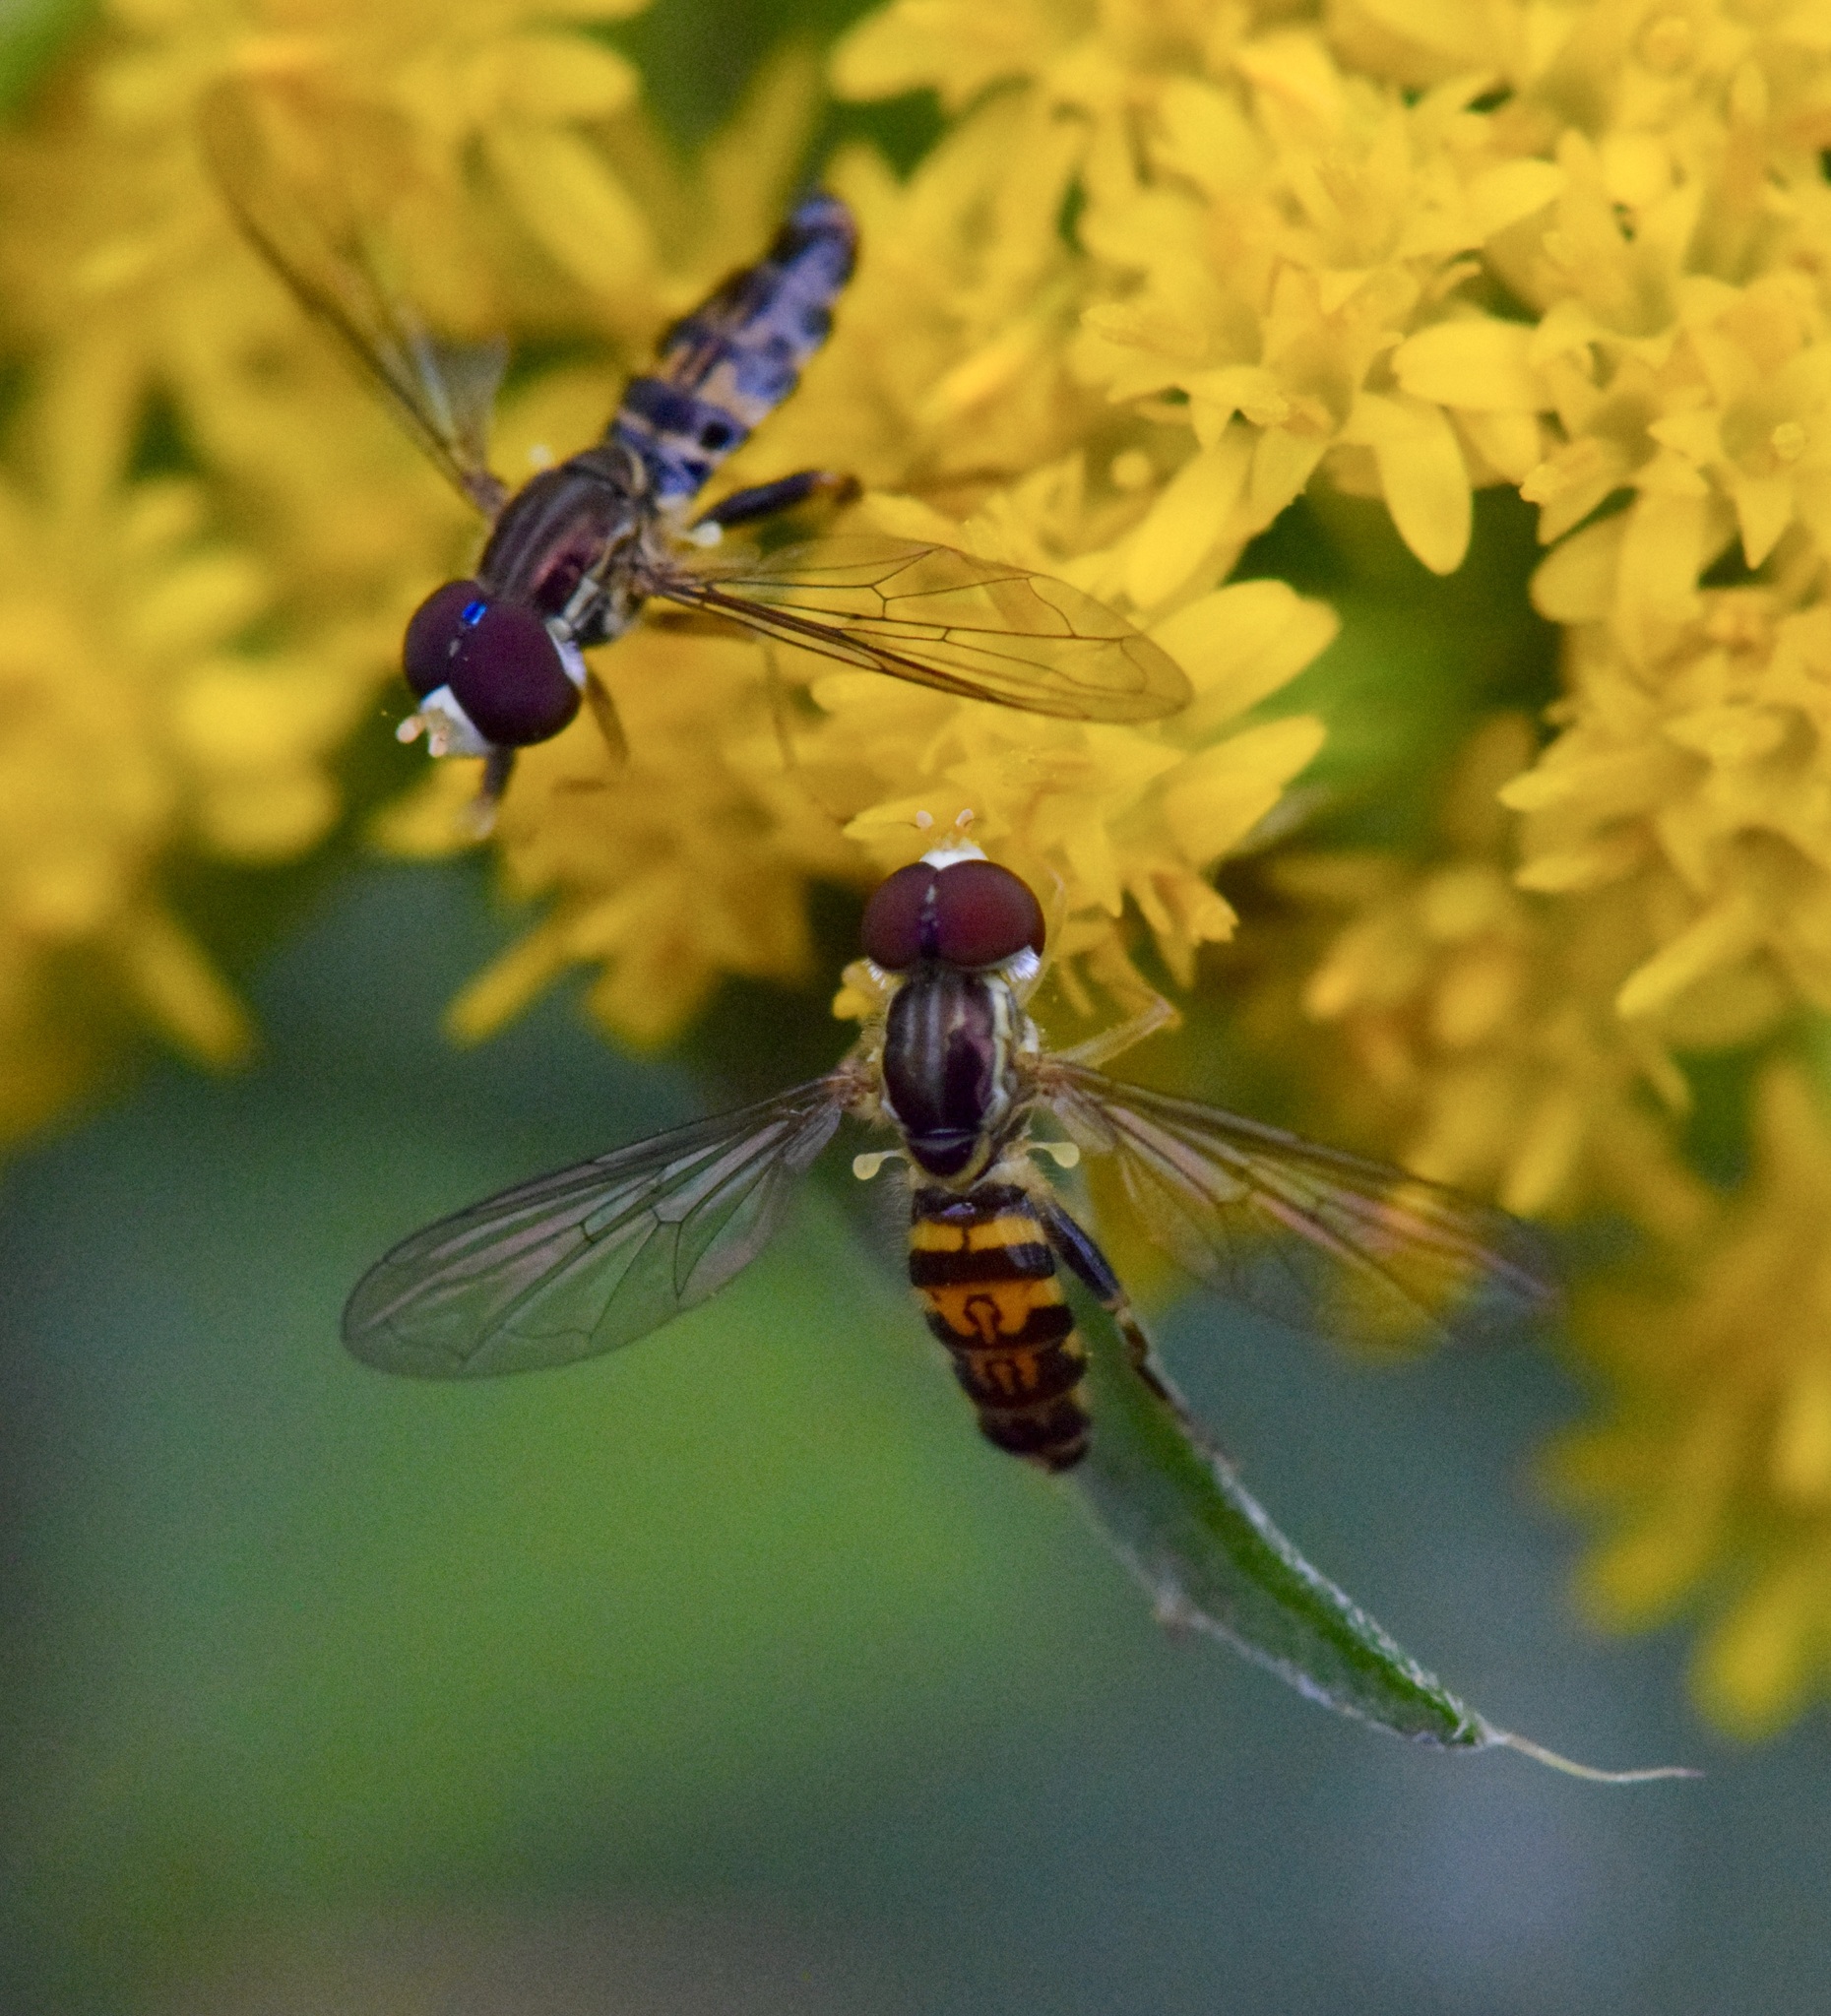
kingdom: Animalia
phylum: Arthropoda
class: Insecta
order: Diptera
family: Syrphidae
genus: Toxomerus
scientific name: Toxomerus geminatus
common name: Eastern calligrapher
